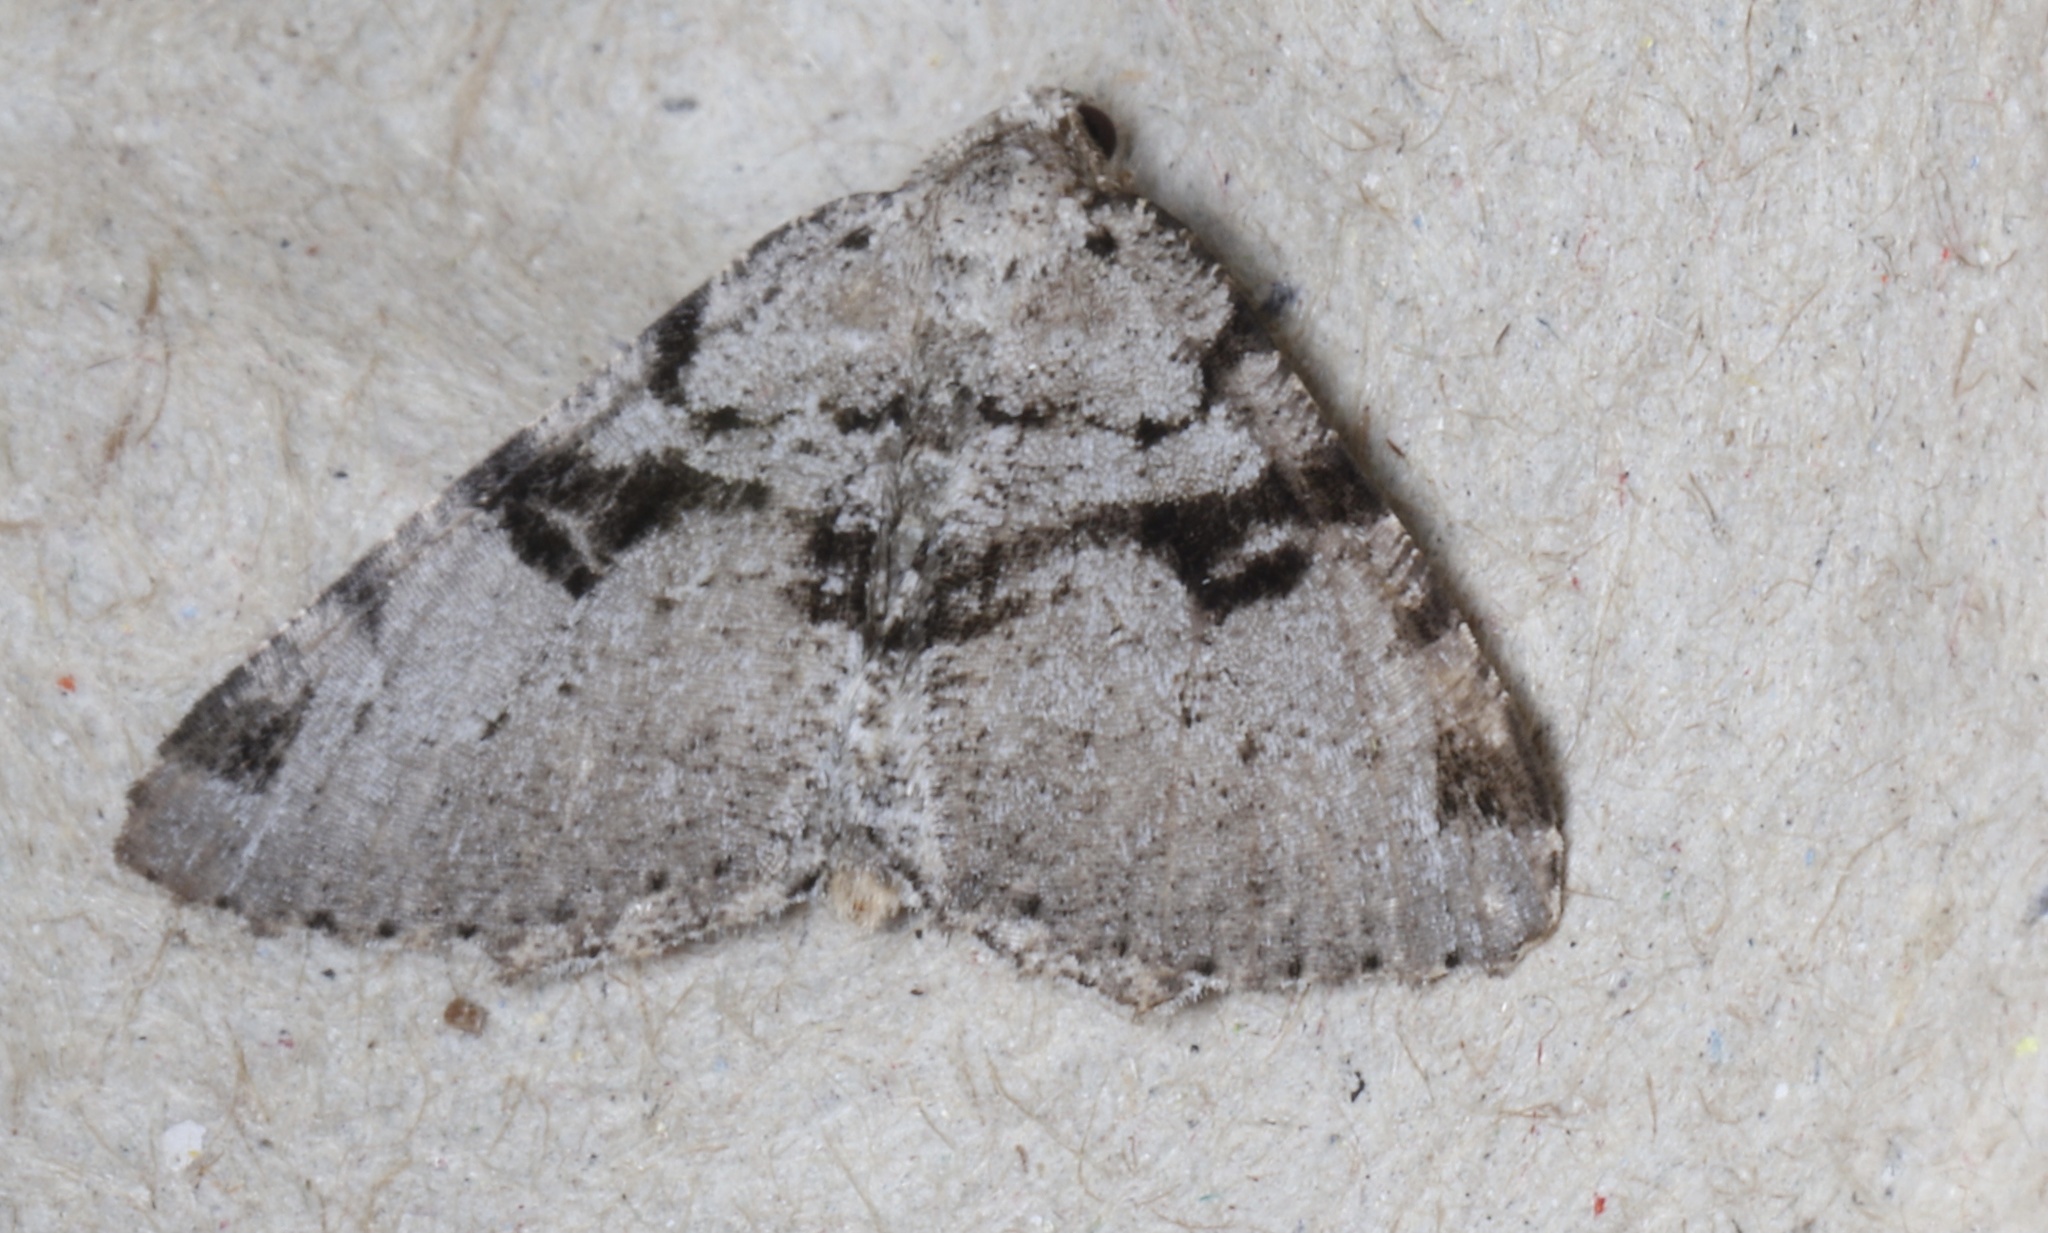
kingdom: Animalia
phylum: Arthropoda
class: Insecta
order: Lepidoptera
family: Geometridae
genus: Macaria
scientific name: Macaria bitactata
